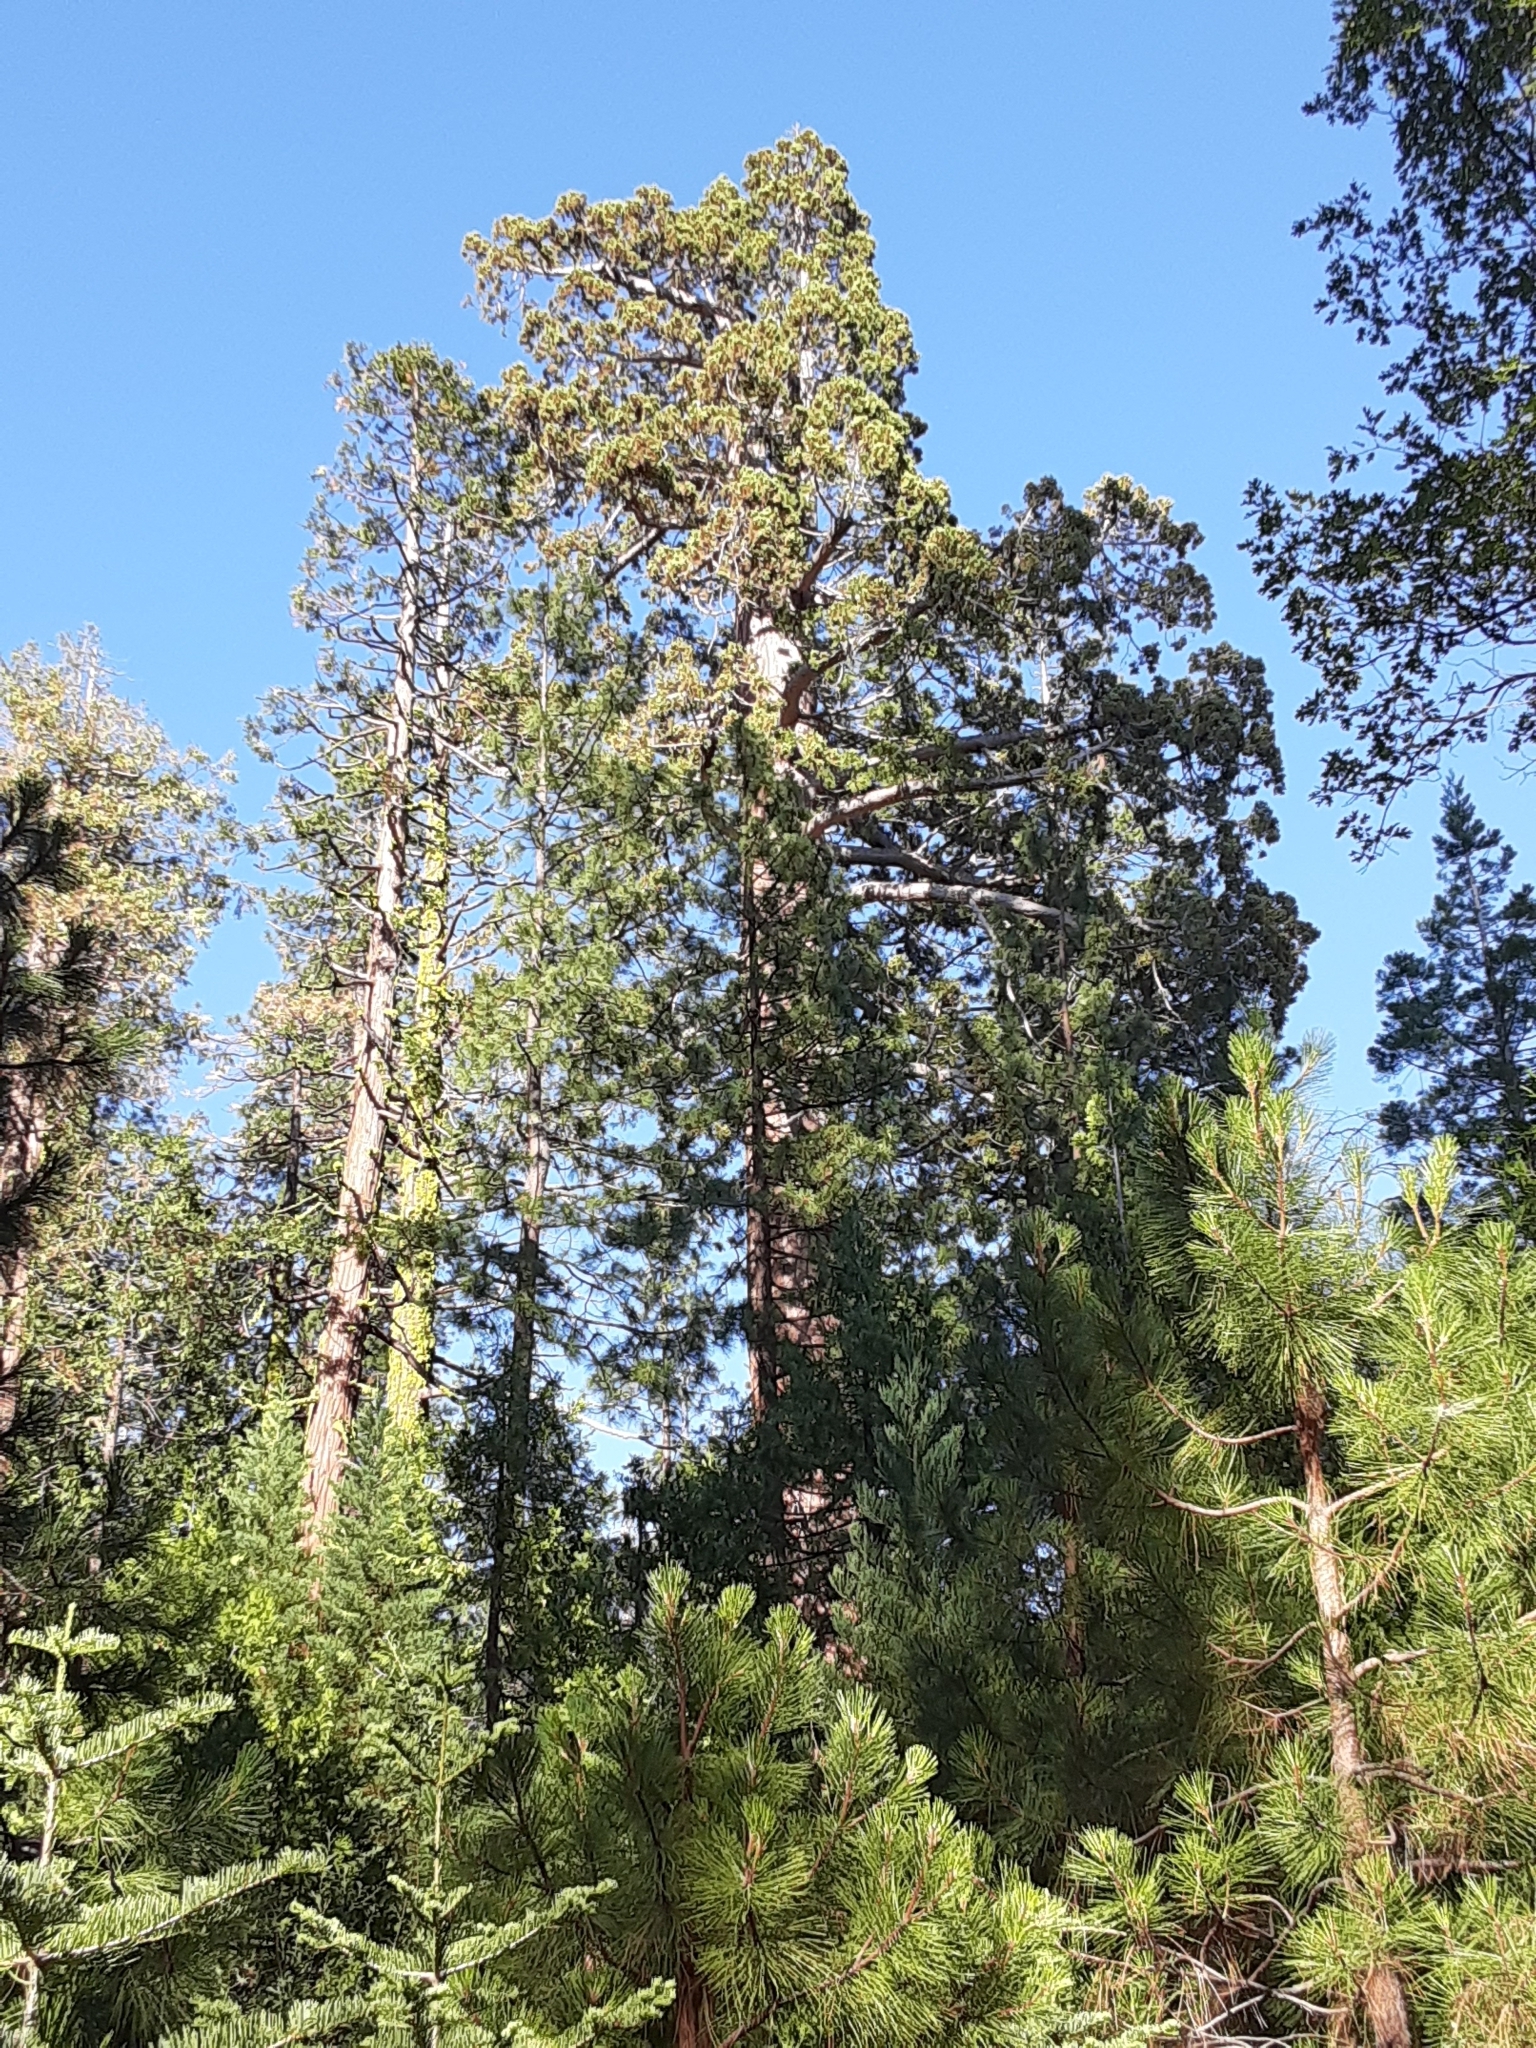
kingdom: Plantae
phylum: Tracheophyta
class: Pinopsida
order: Pinales
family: Cupressaceae
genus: Sequoiadendron
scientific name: Sequoiadendron giganteum
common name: Wellingtonia
